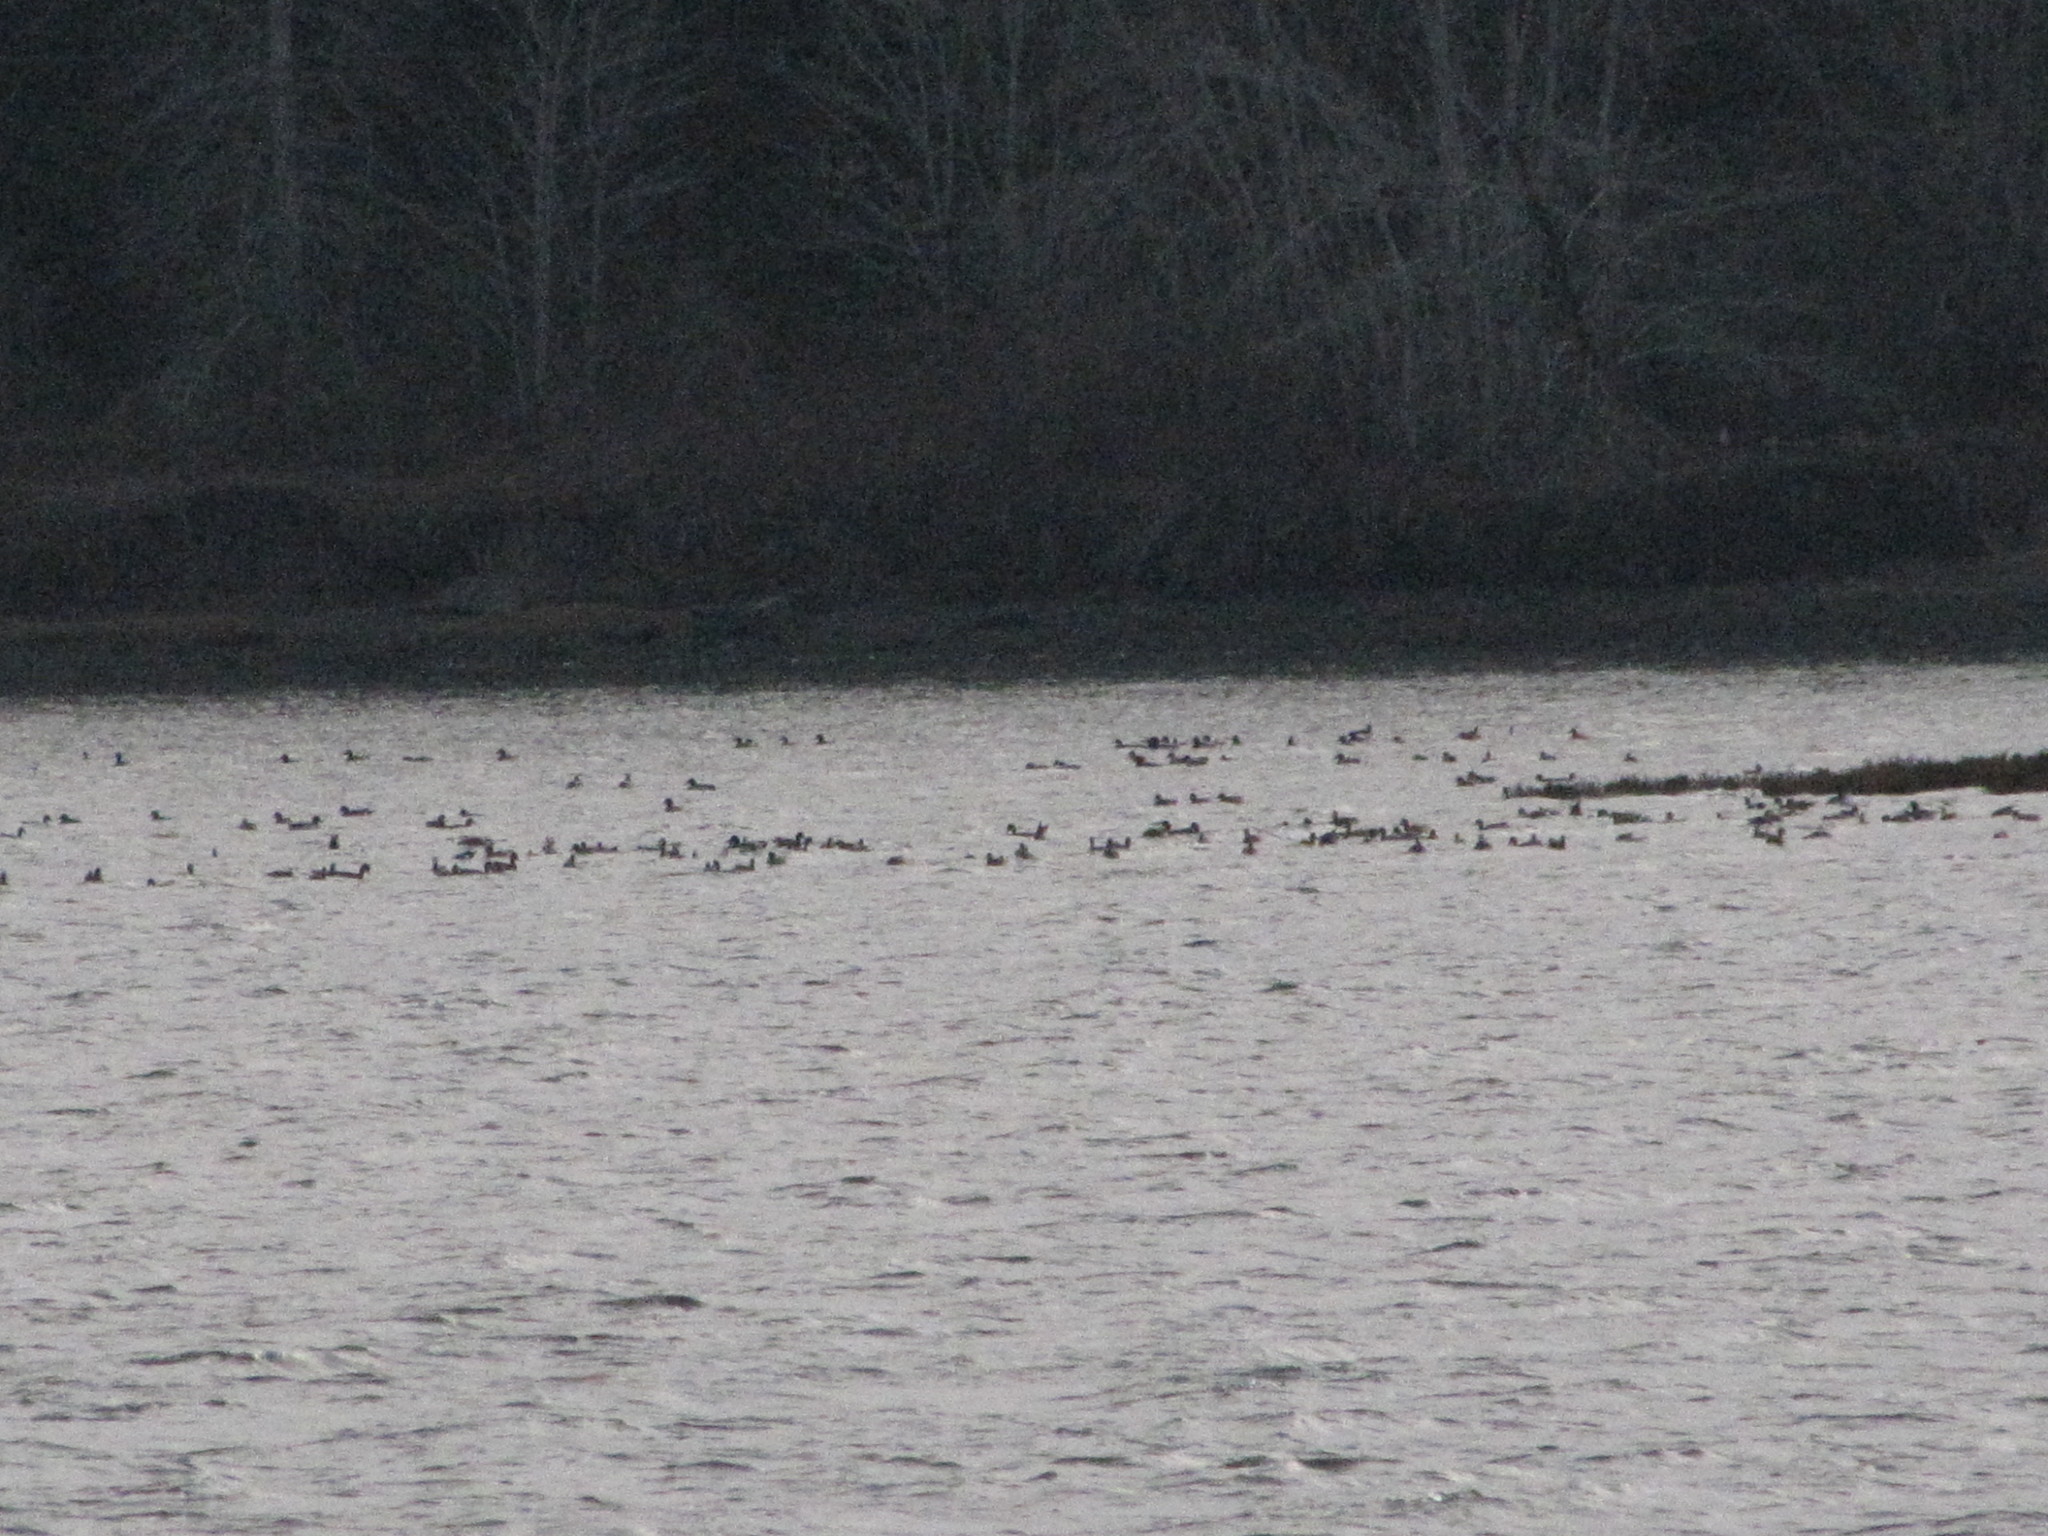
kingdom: Animalia
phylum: Chordata
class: Aves
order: Anseriformes
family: Anatidae
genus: Mareca
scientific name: Mareca americana
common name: American wigeon
